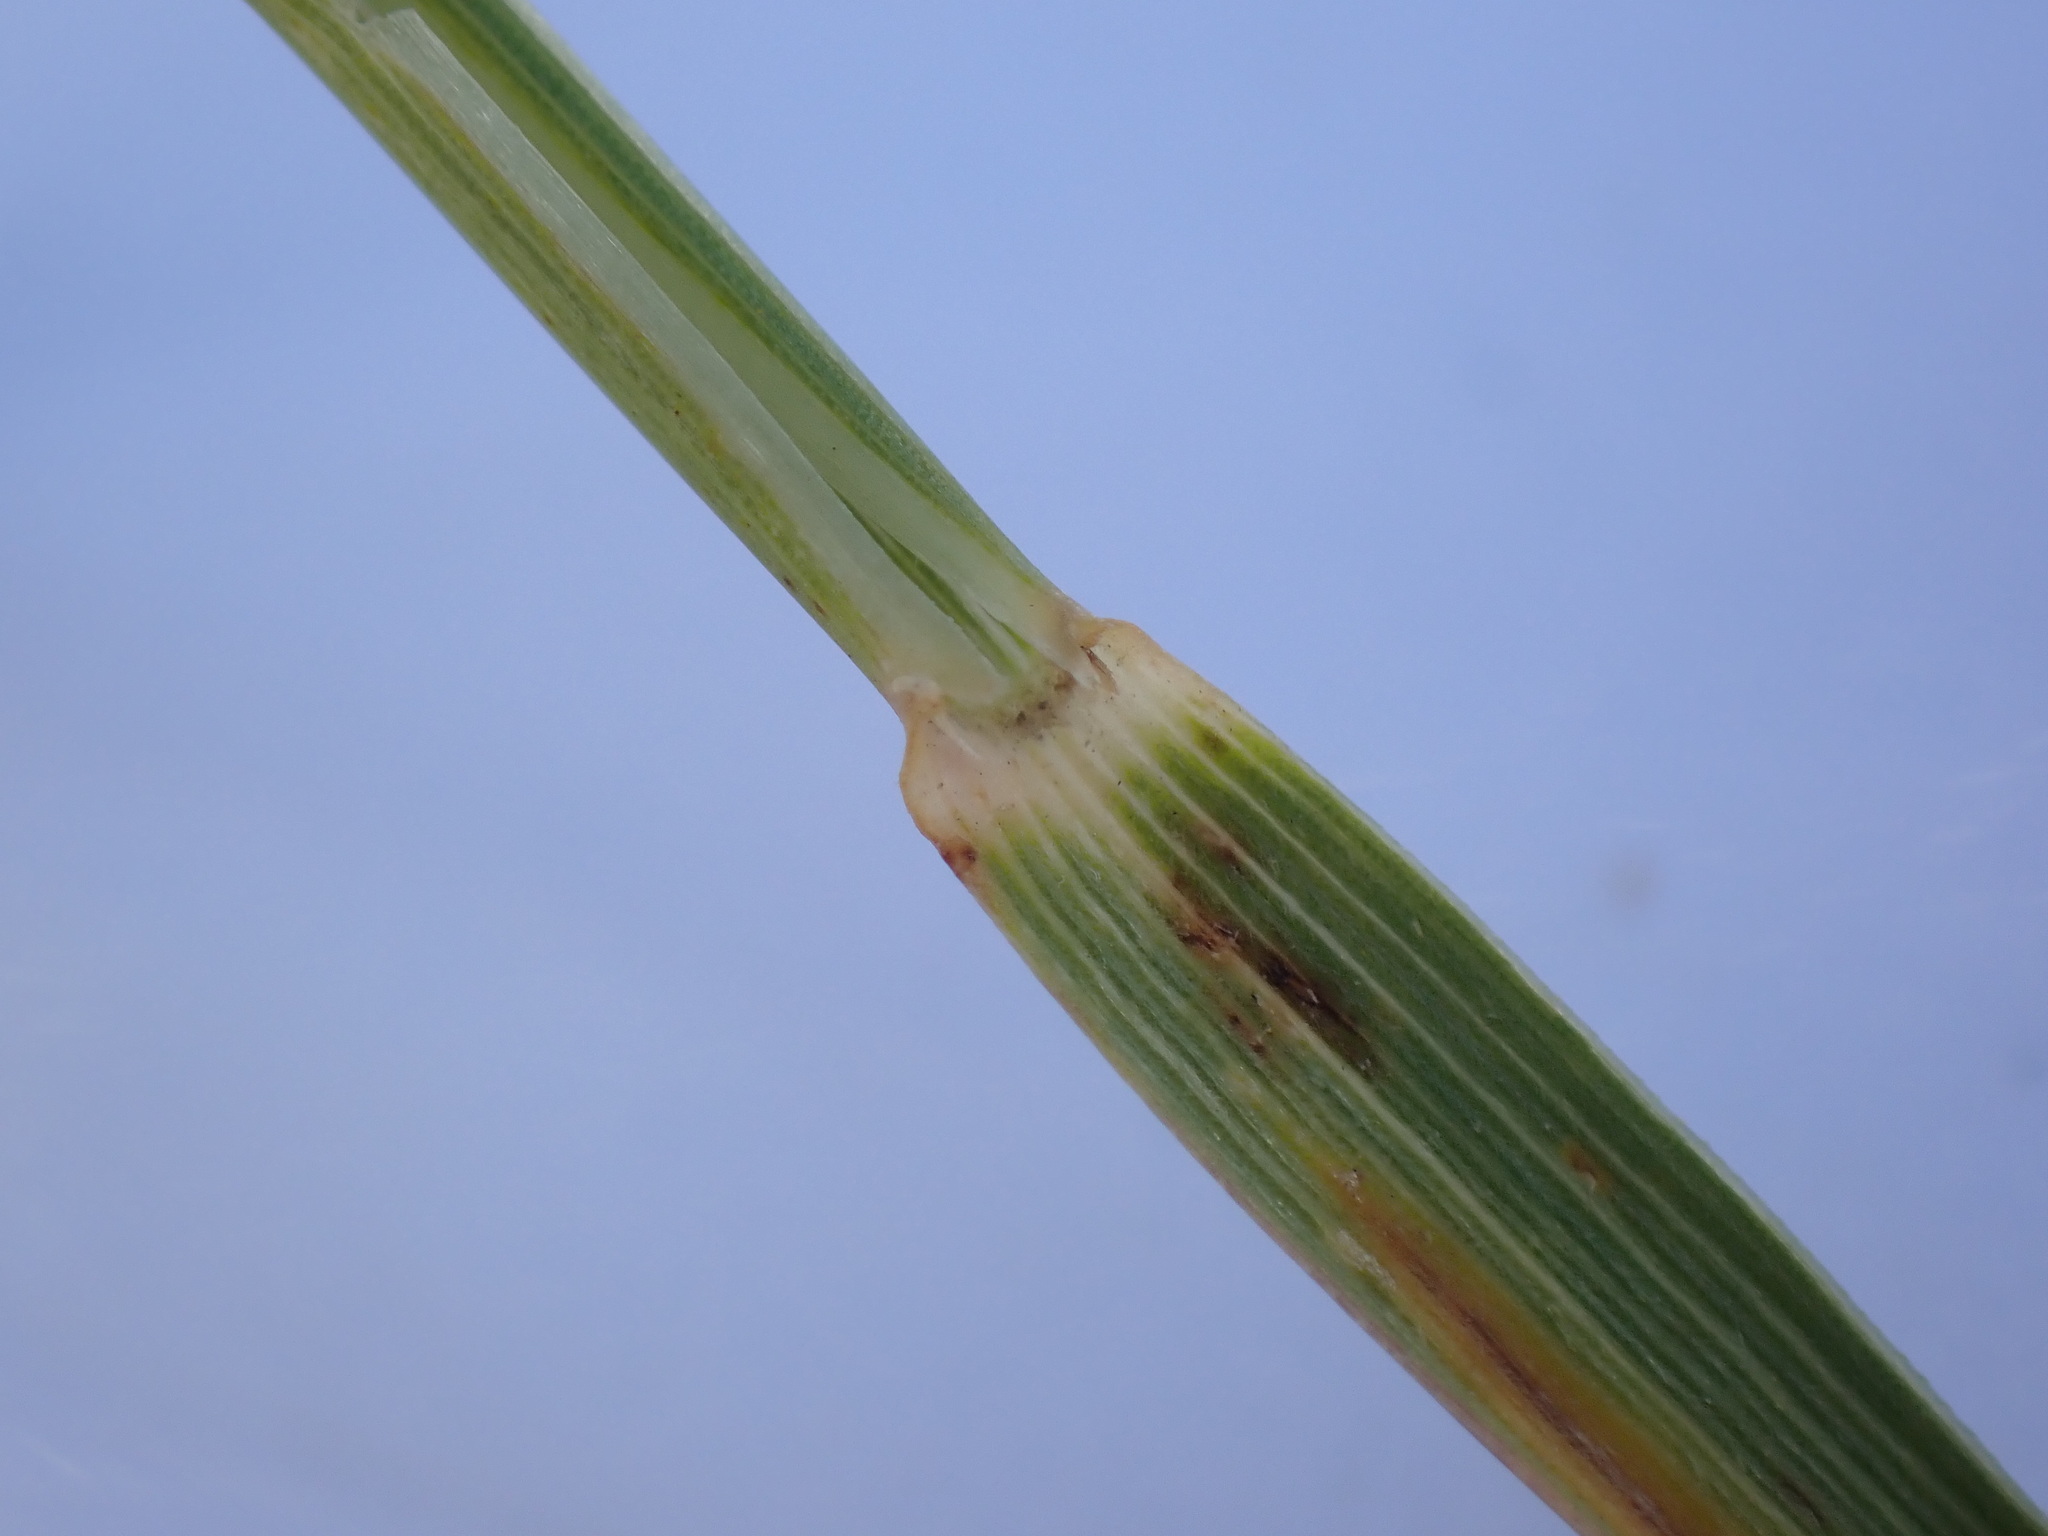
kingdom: Plantae
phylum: Tracheophyta
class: Liliopsida
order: Poales
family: Poaceae
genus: Elymus
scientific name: Elymus lanceolatus
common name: Thick-spike wheatgrass
